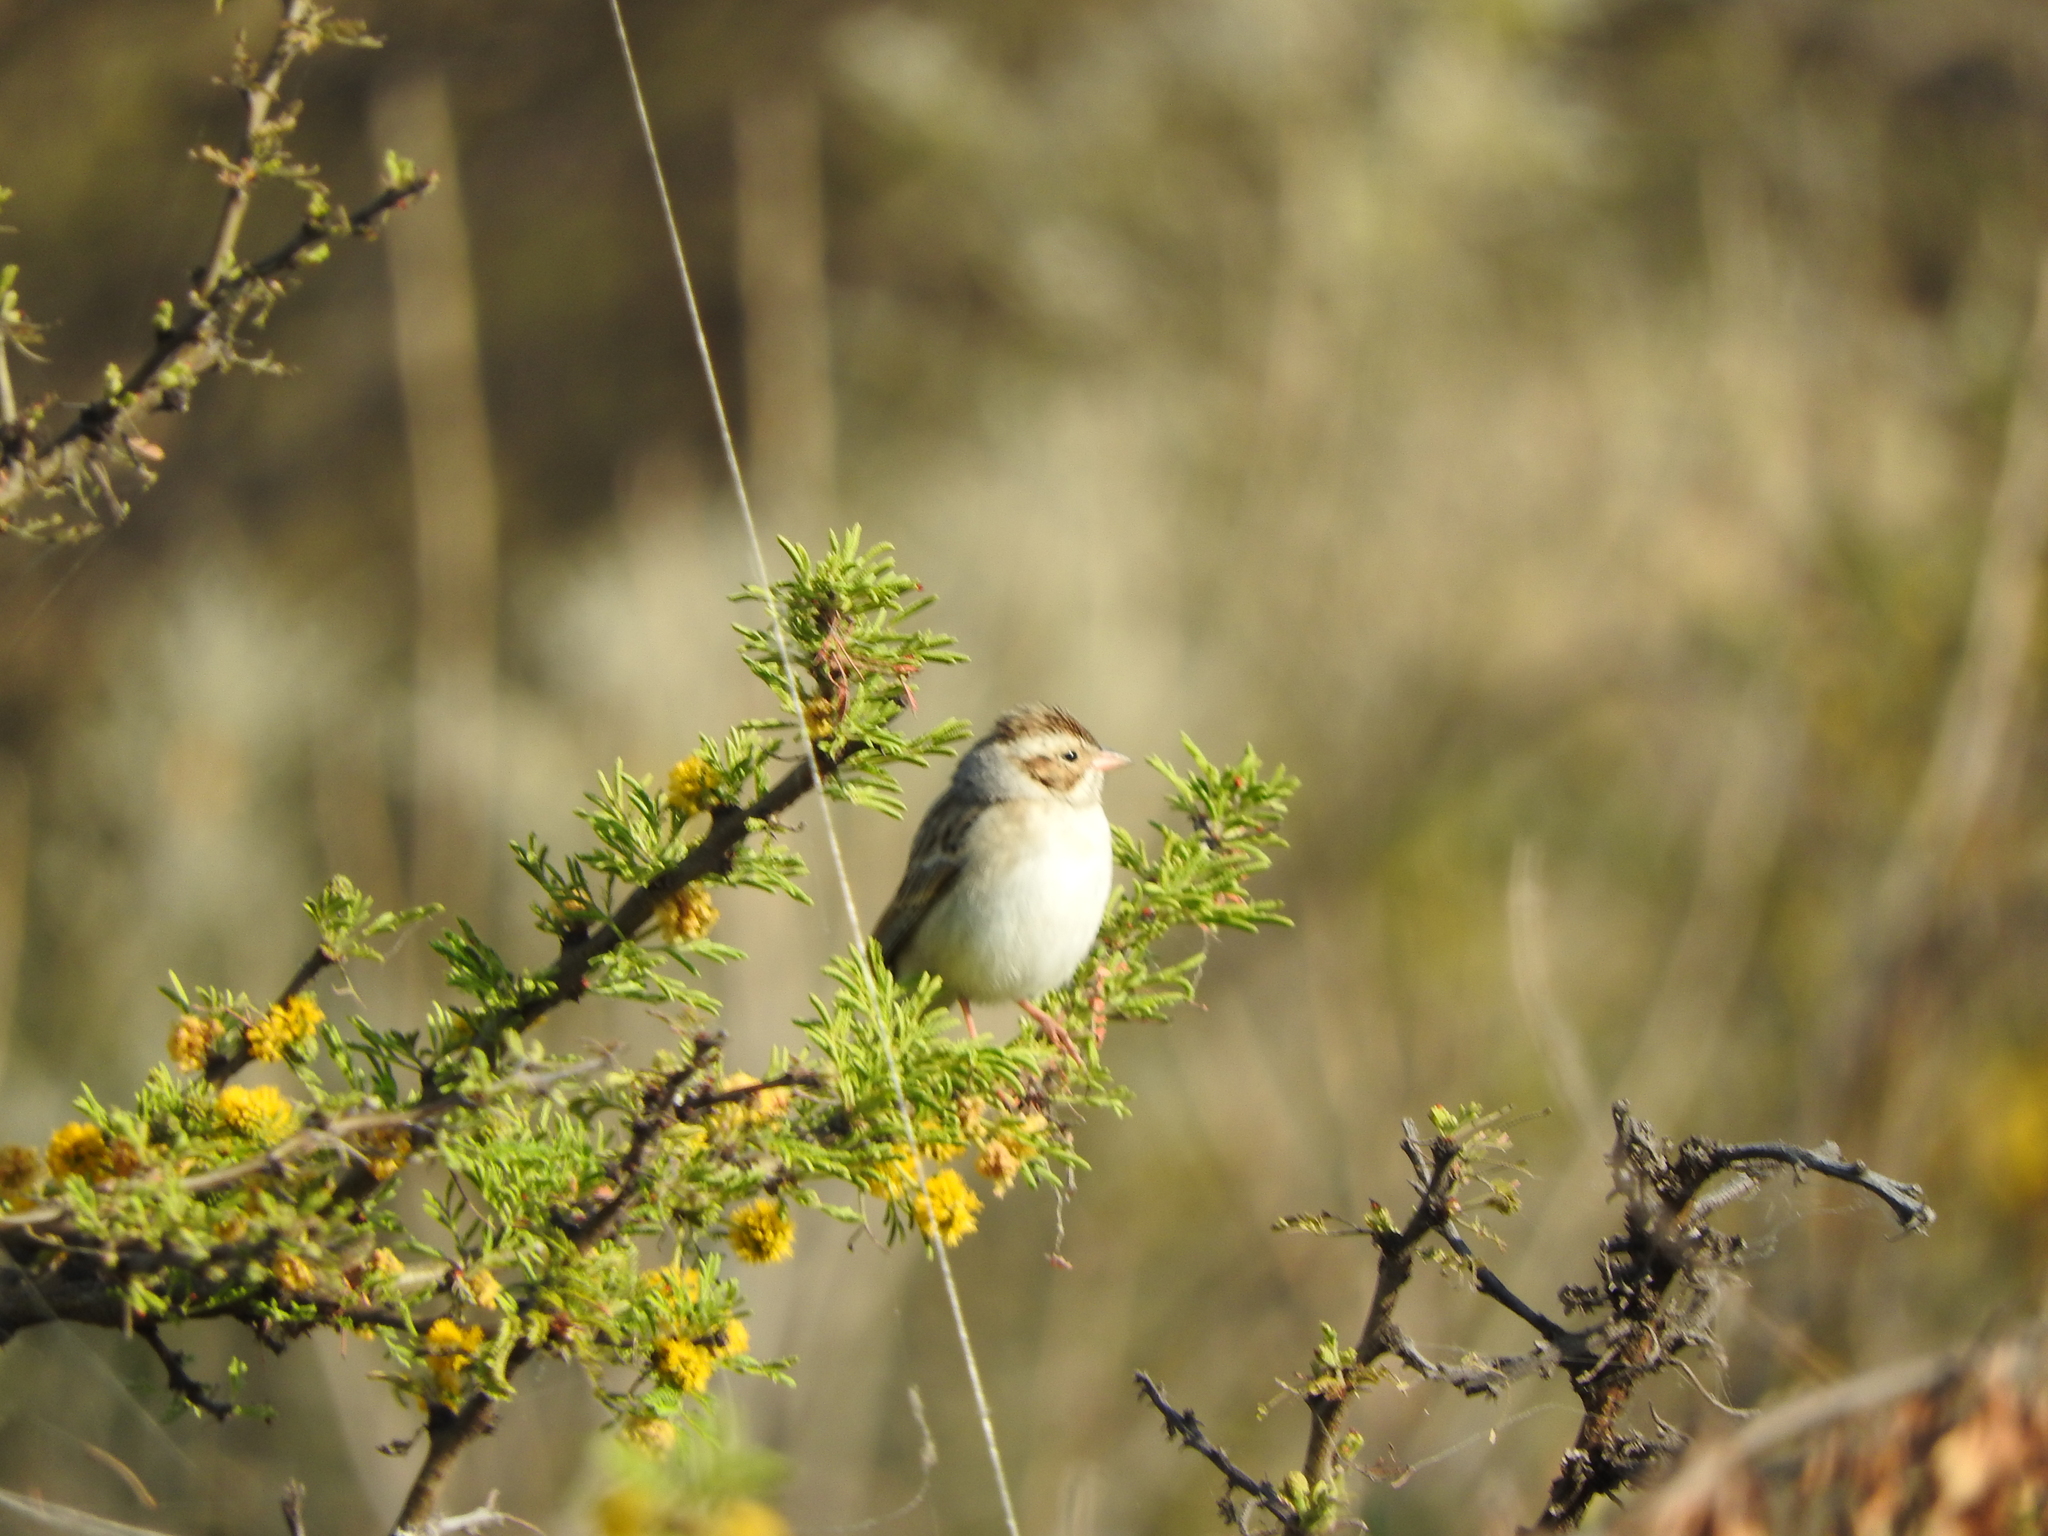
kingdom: Animalia
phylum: Chordata
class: Aves
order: Passeriformes
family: Passerellidae
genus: Spizella
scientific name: Spizella pallida
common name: Clay-colored sparrow
